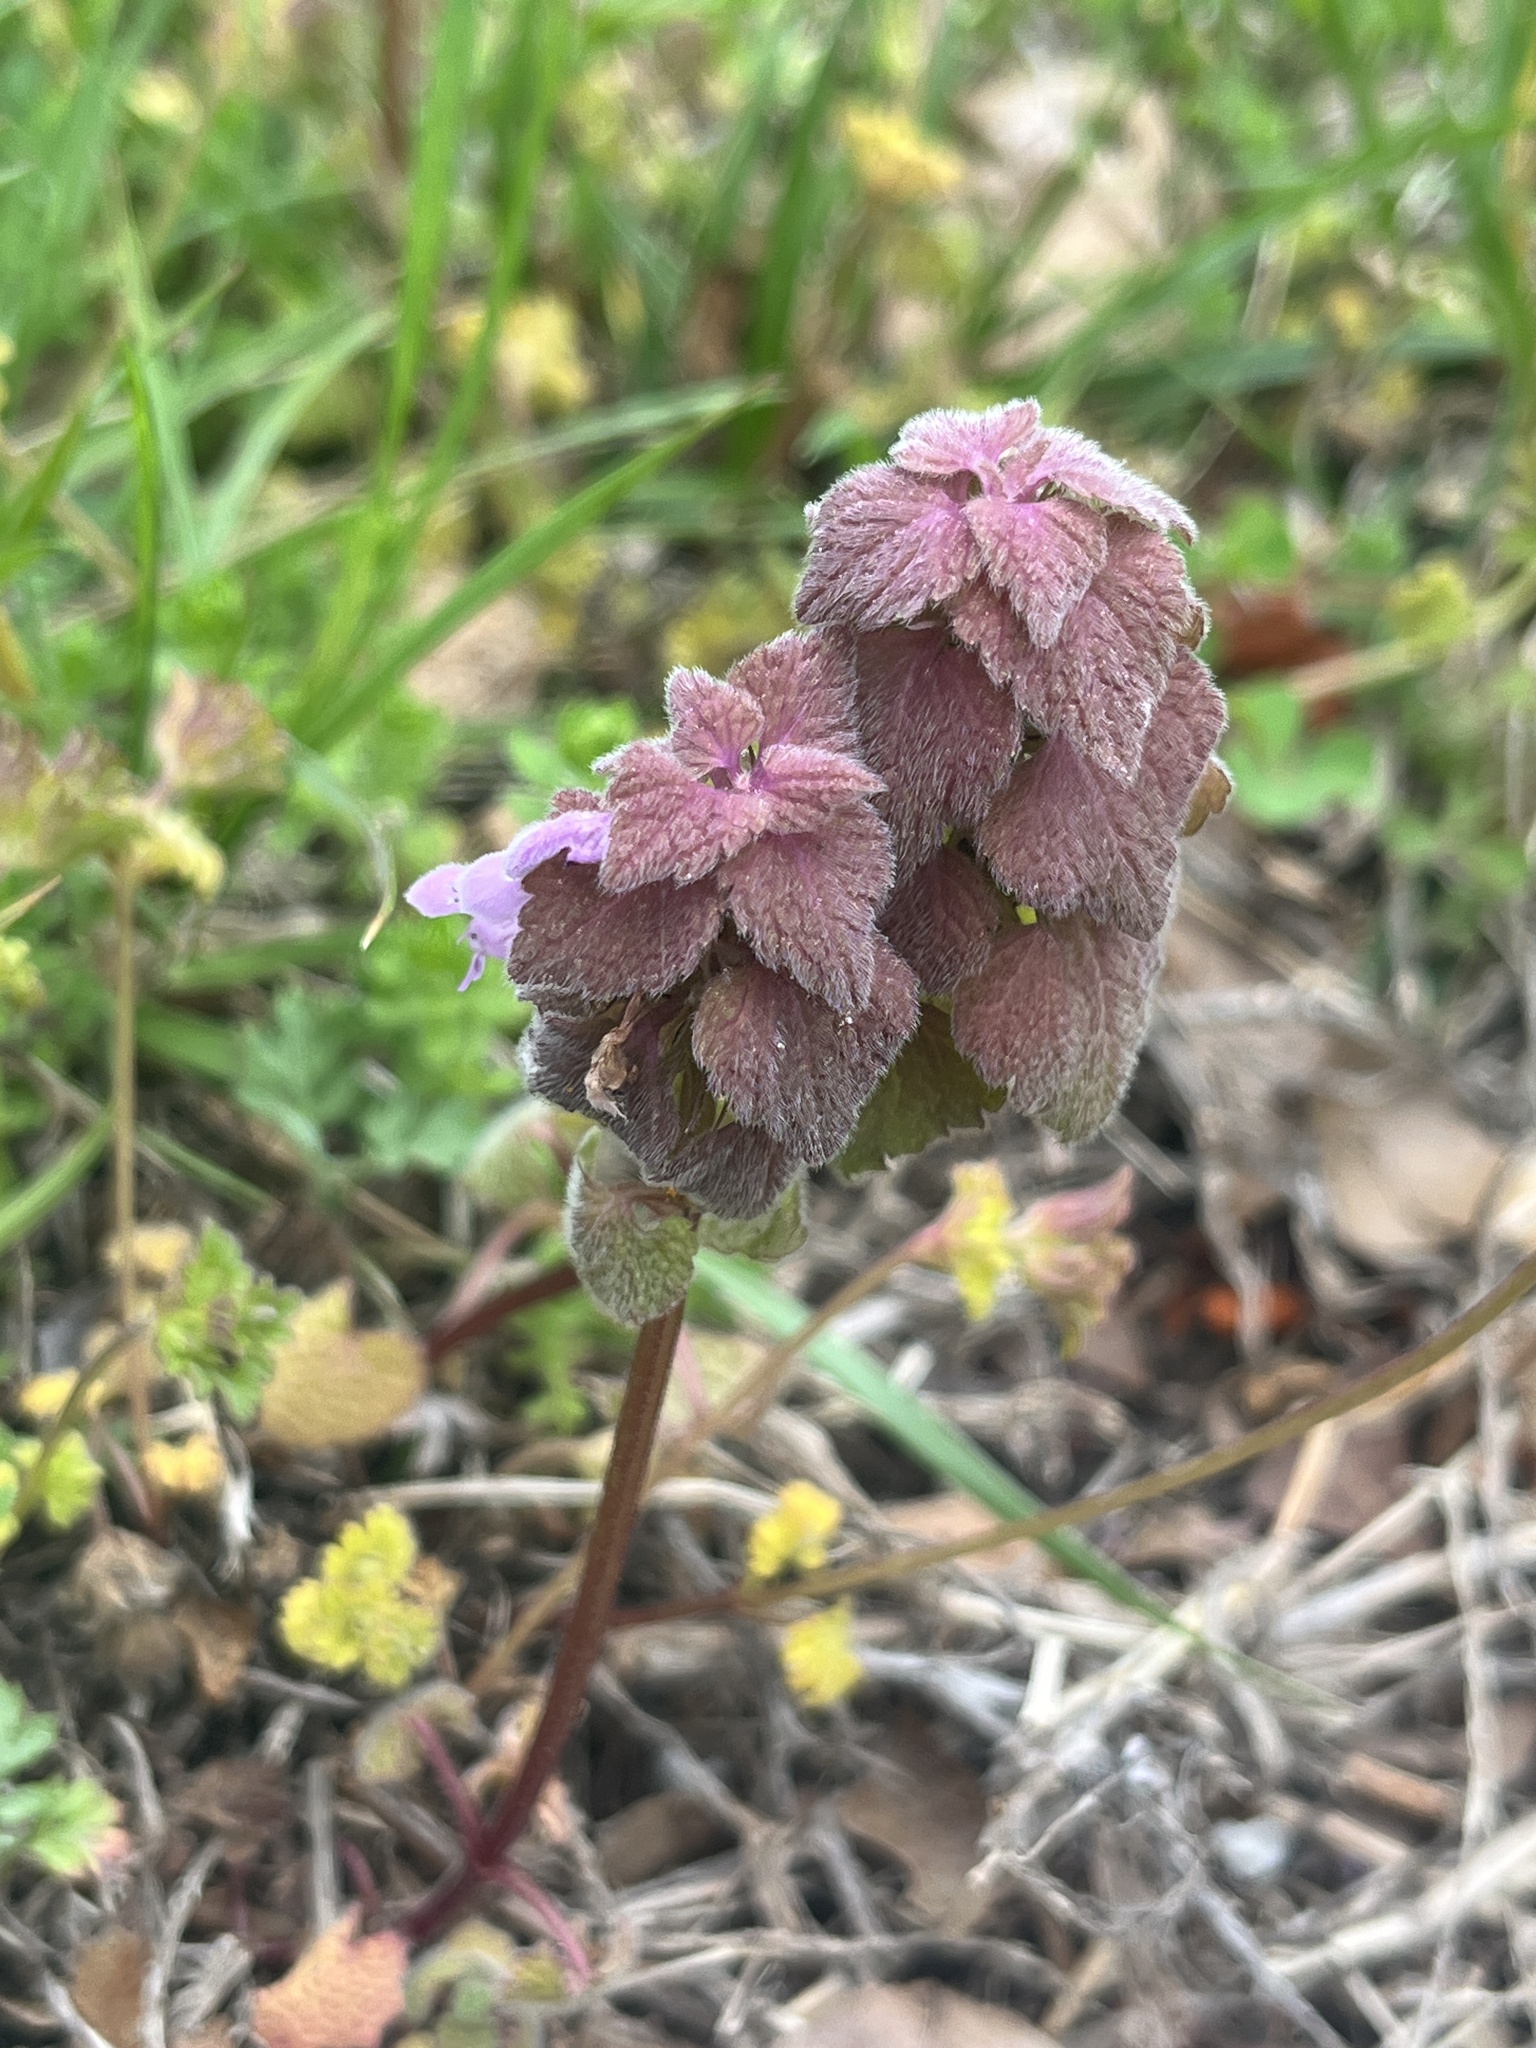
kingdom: Plantae
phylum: Tracheophyta
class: Magnoliopsida
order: Lamiales
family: Lamiaceae
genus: Lamium
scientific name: Lamium purpureum
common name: Red dead-nettle
